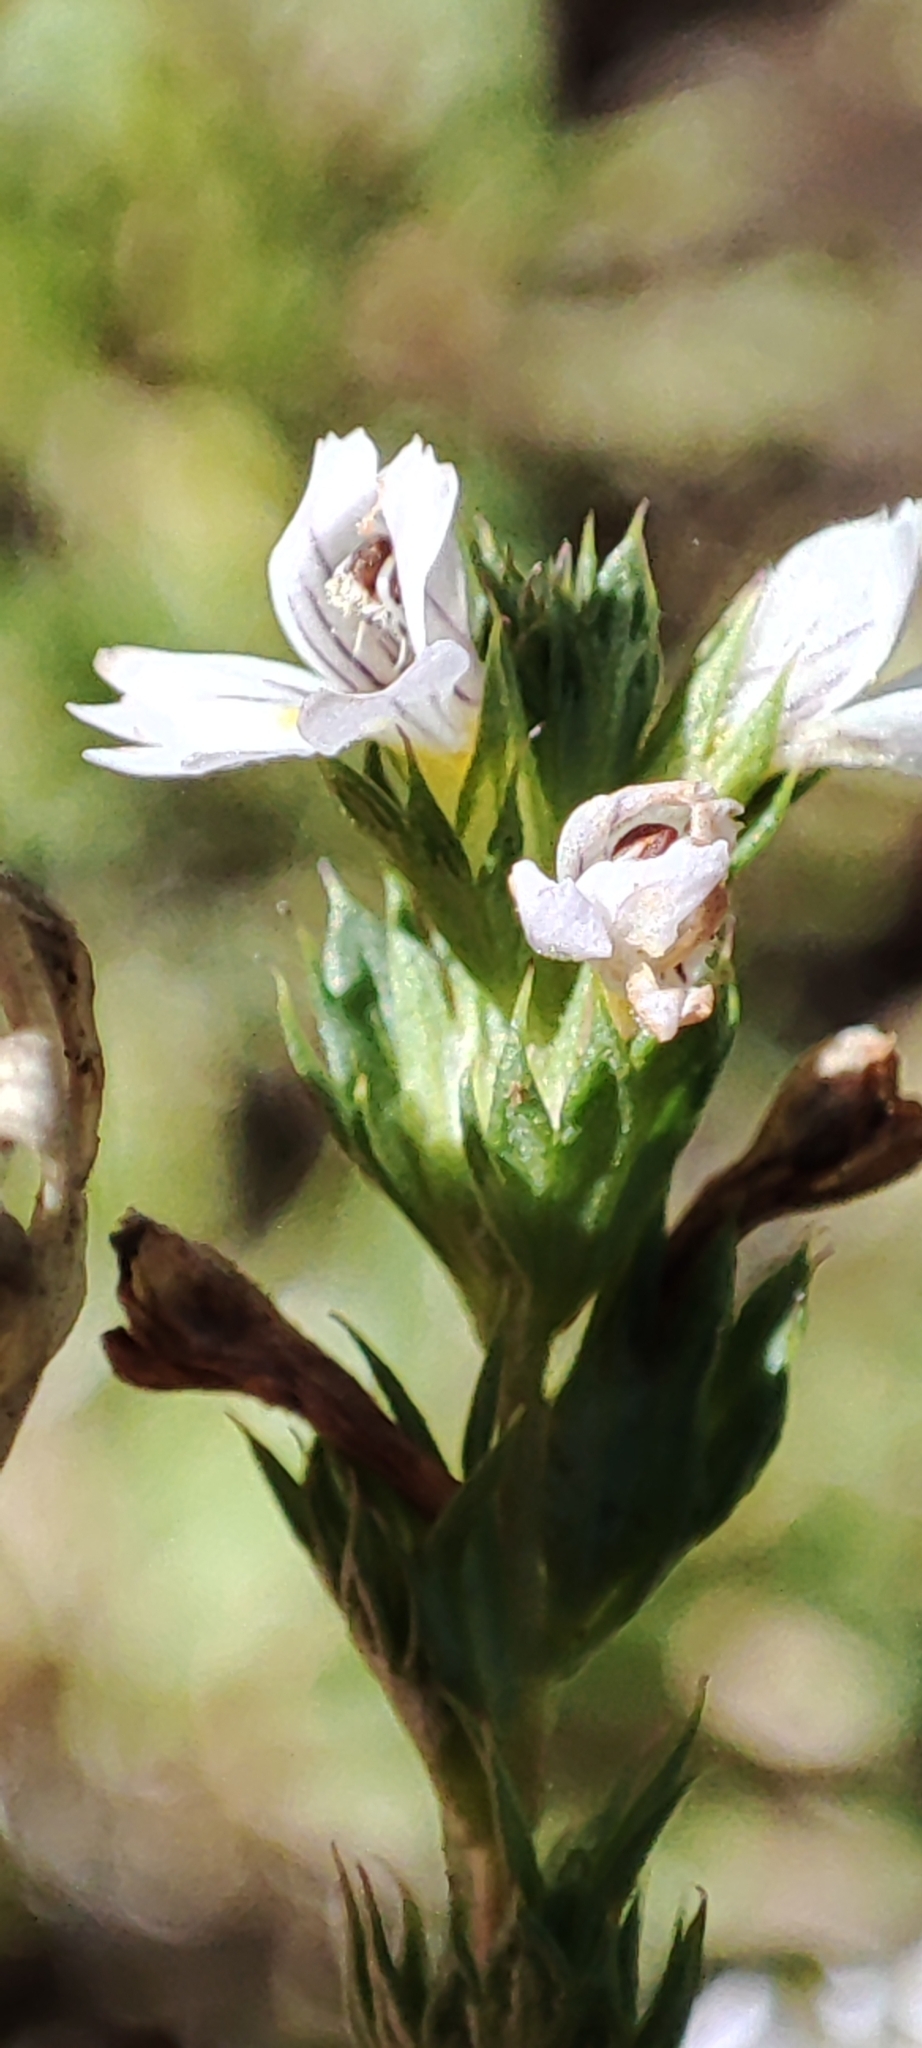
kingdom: Plantae
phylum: Tracheophyta
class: Magnoliopsida
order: Lamiales
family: Orobanchaceae
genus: Euphrasia
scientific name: Euphrasia nemorosa
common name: Common eyebright
